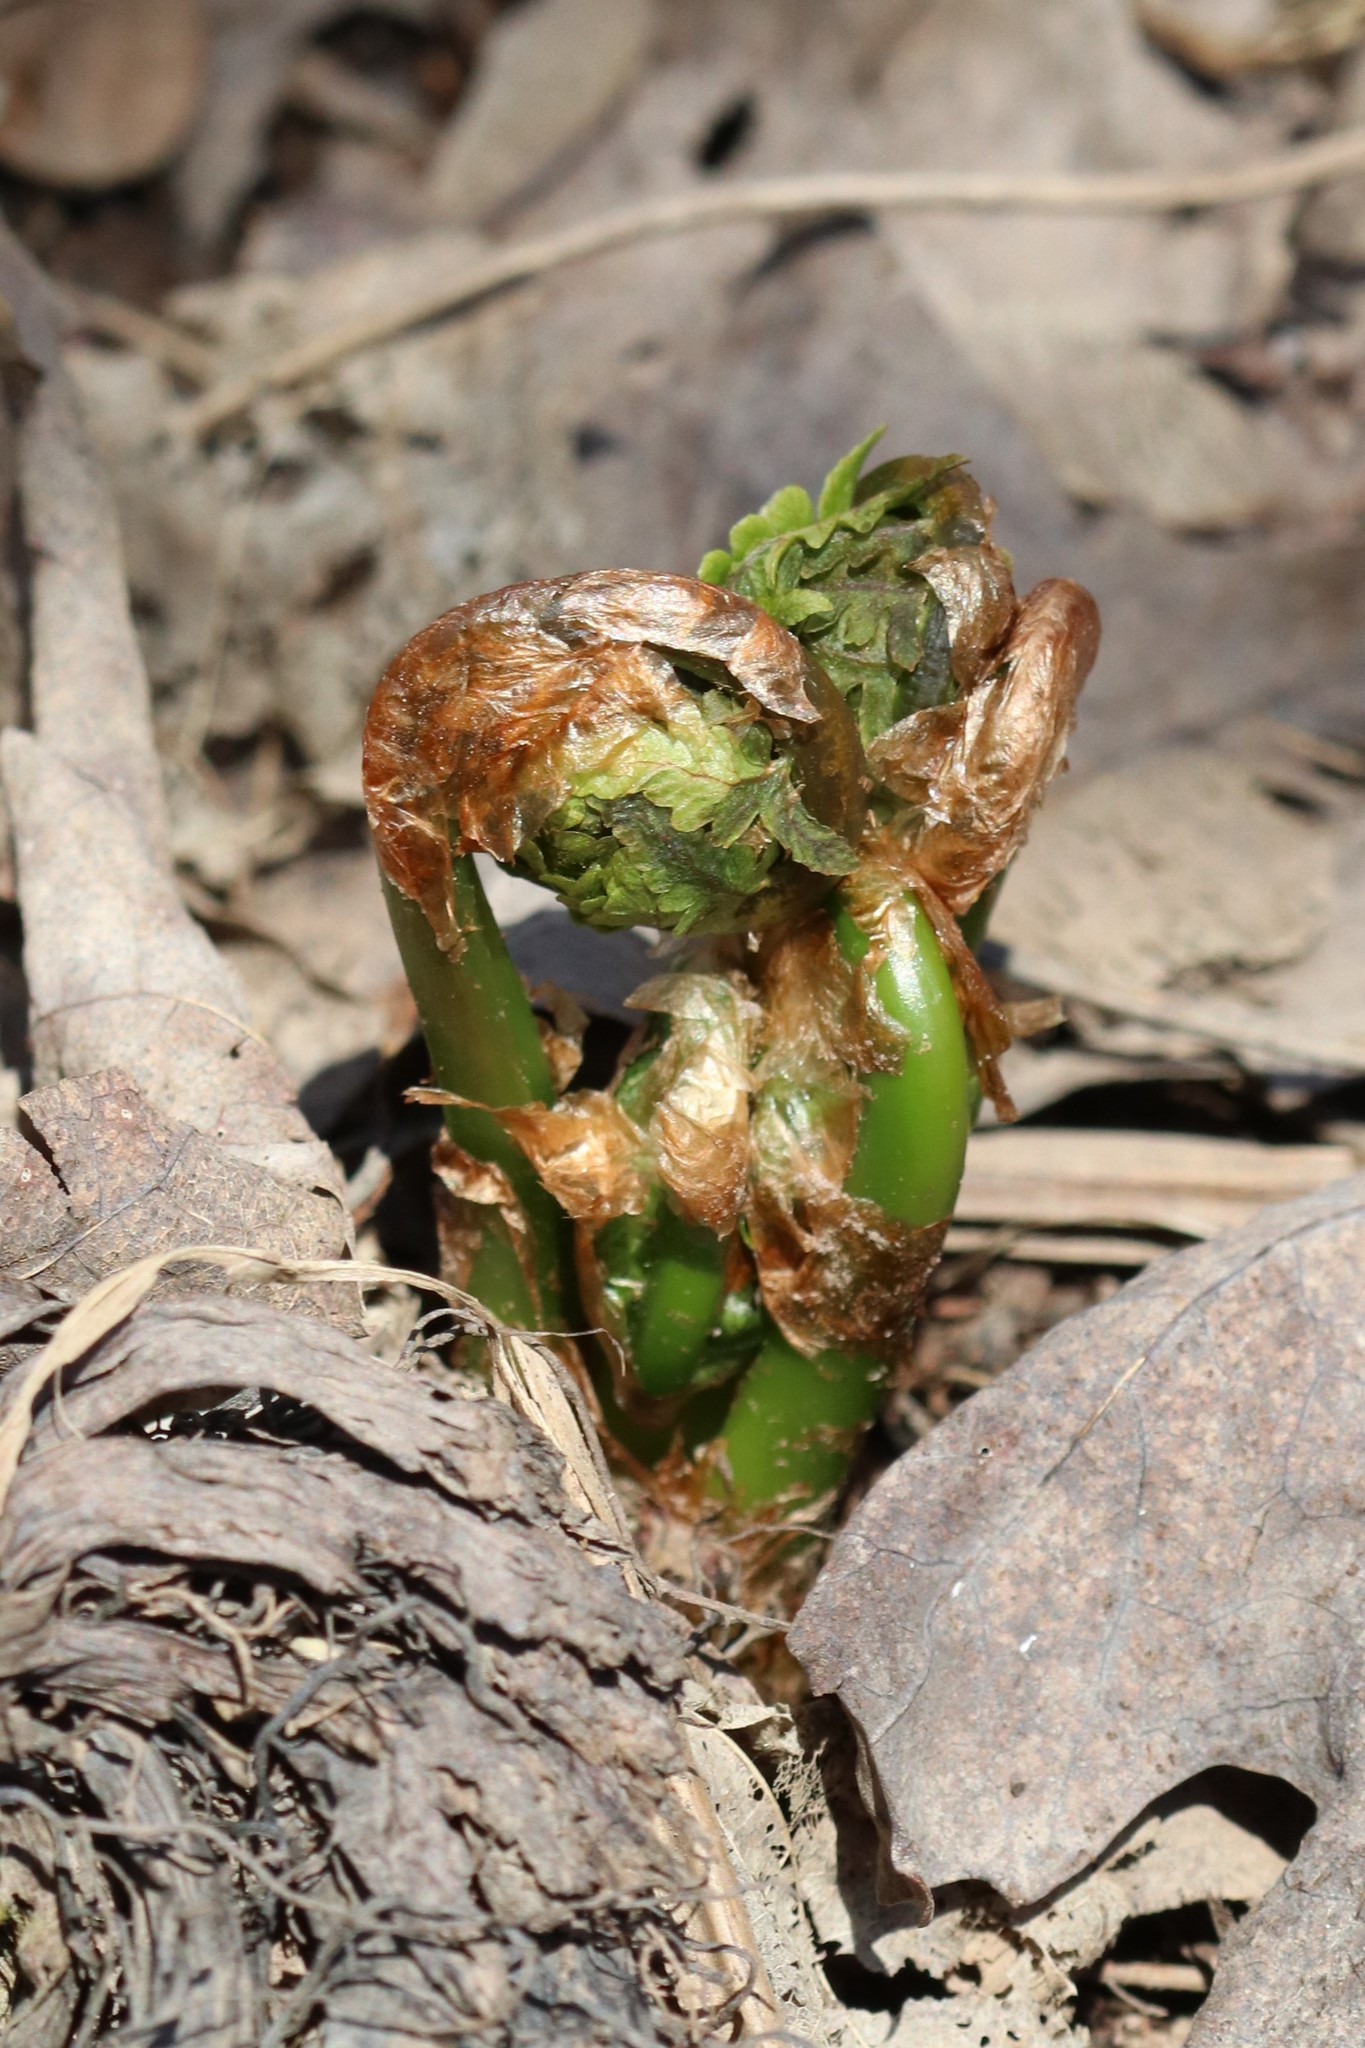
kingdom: Plantae
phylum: Tracheophyta
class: Polypodiopsida
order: Polypodiales
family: Onocleaceae
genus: Matteuccia
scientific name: Matteuccia struthiopteris
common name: Ostrich fern
